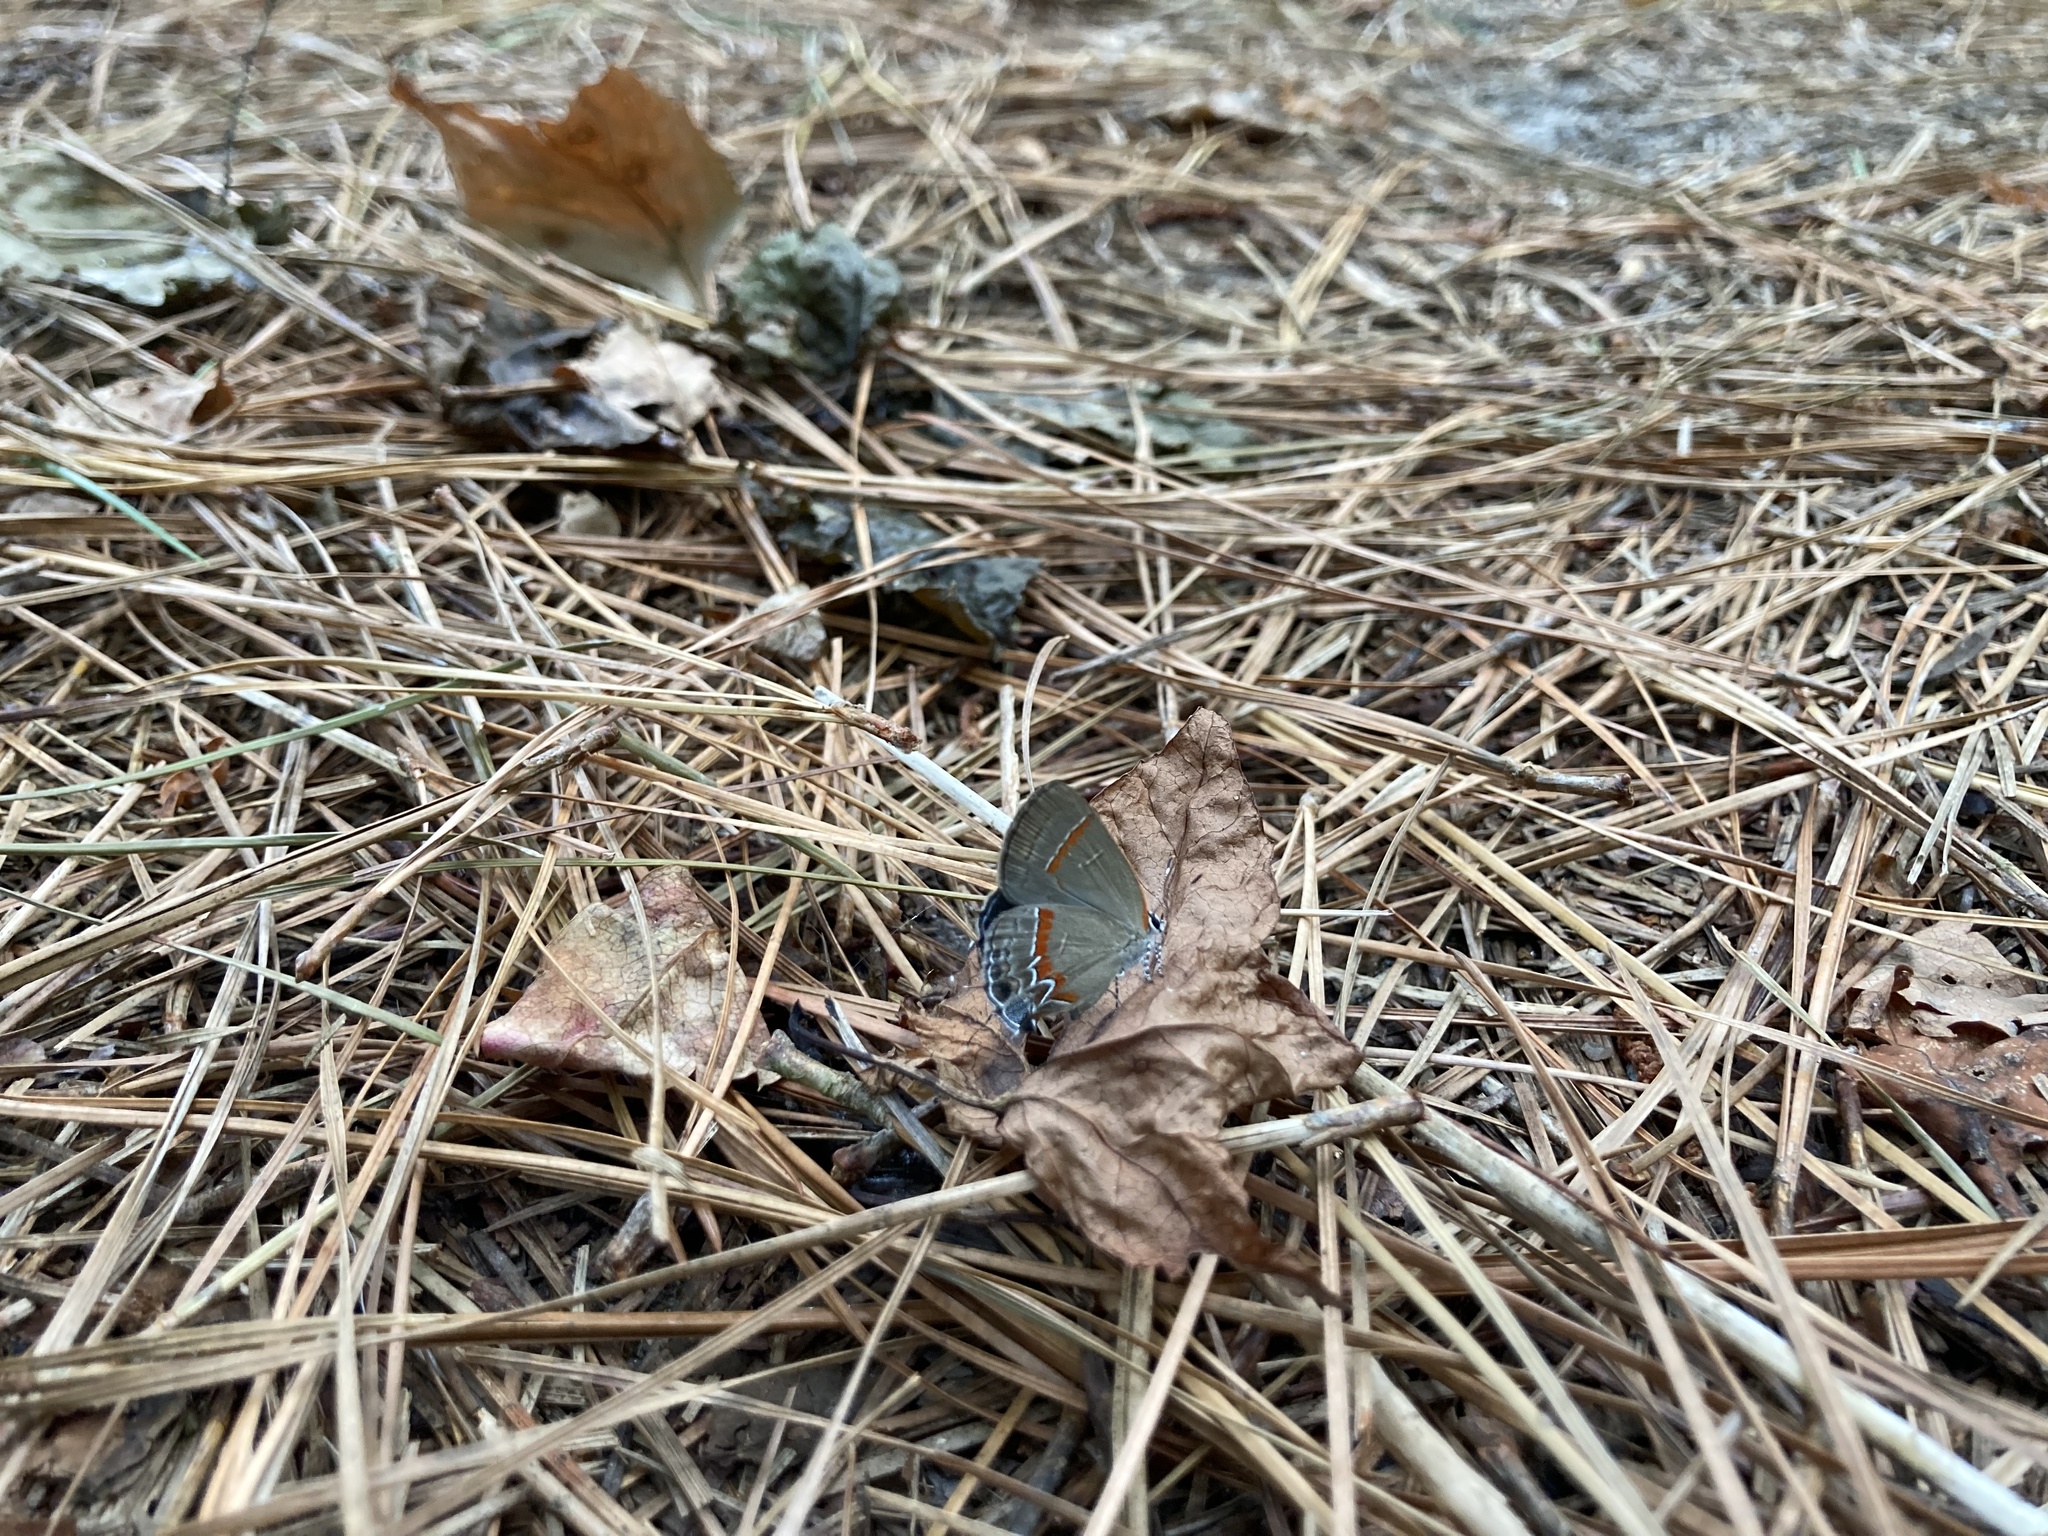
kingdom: Animalia
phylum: Arthropoda
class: Insecta
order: Lepidoptera
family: Lycaenidae
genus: Calycopis
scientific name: Calycopis cecrops
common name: Red-banded hairstreak
